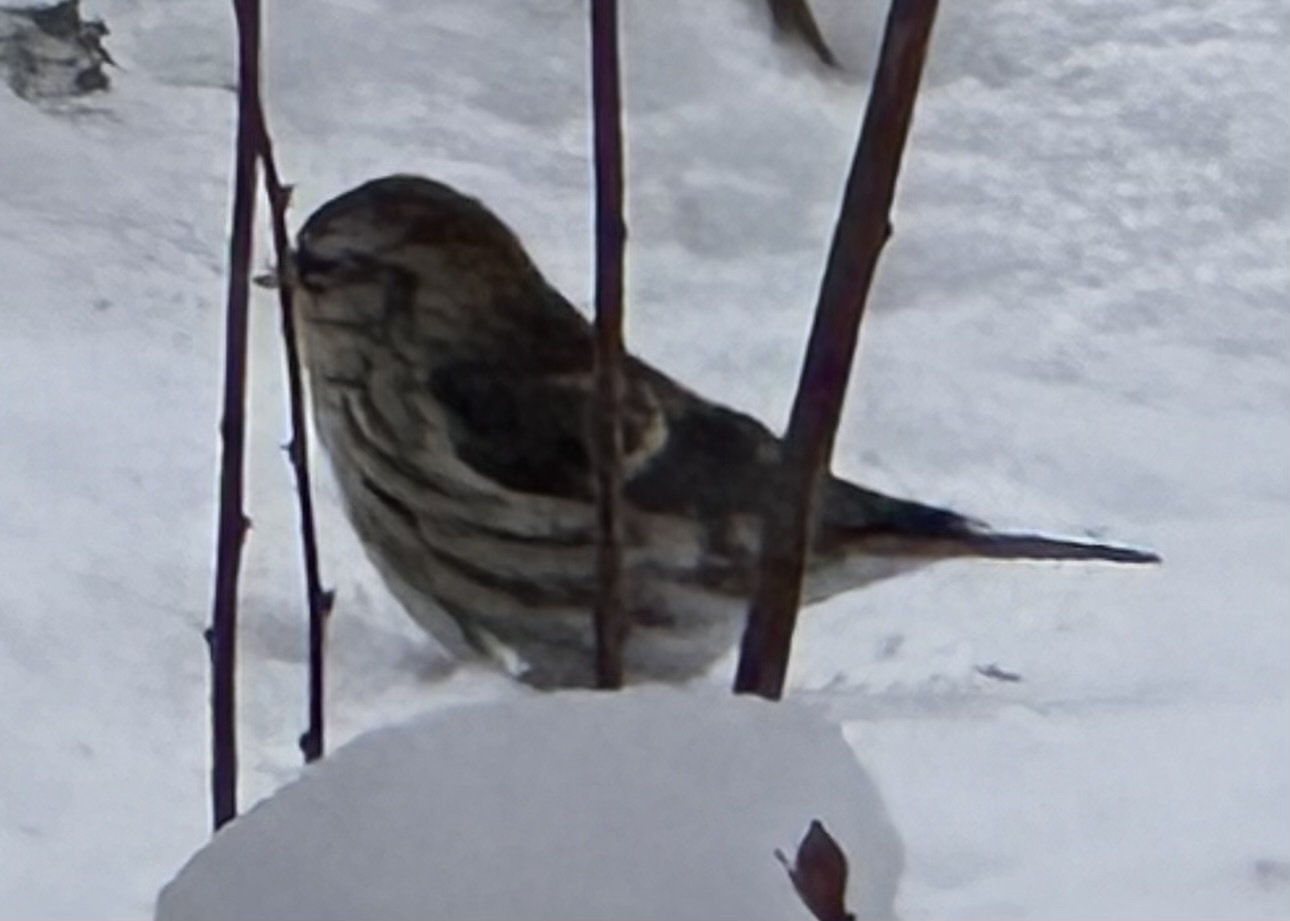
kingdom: Animalia
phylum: Chordata
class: Aves
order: Passeriformes
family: Fringillidae
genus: Acanthis
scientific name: Acanthis flammea
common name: Common redpoll
